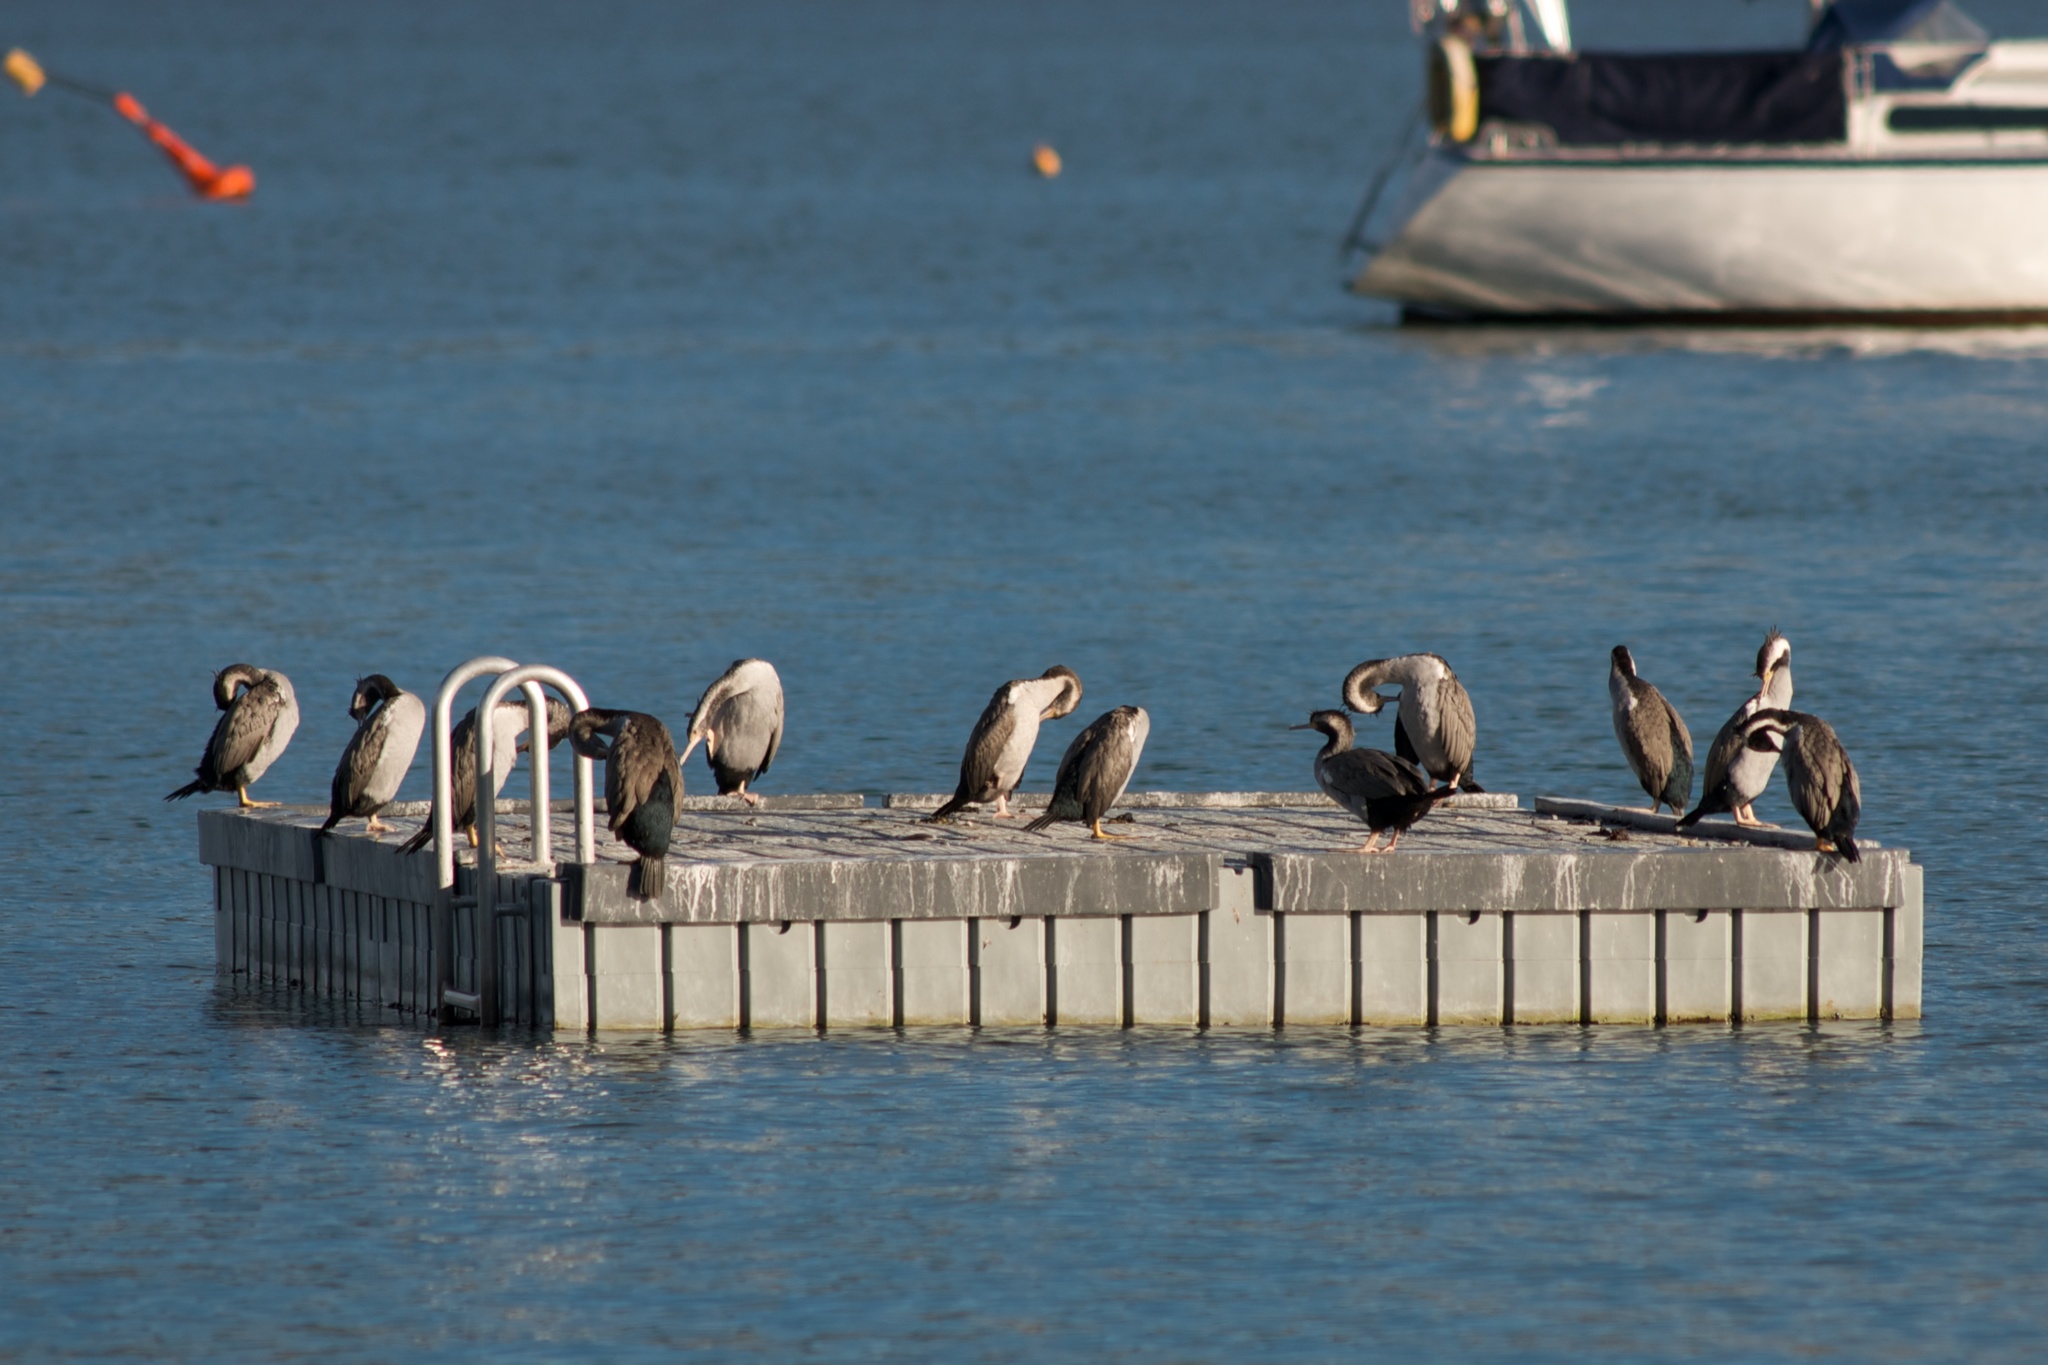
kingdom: Animalia
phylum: Chordata
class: Aves
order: Suliformes
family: Phalacrocoracidae
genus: Phalacrocorax
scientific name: Phalacrocorax punctatus
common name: Spotted shag
